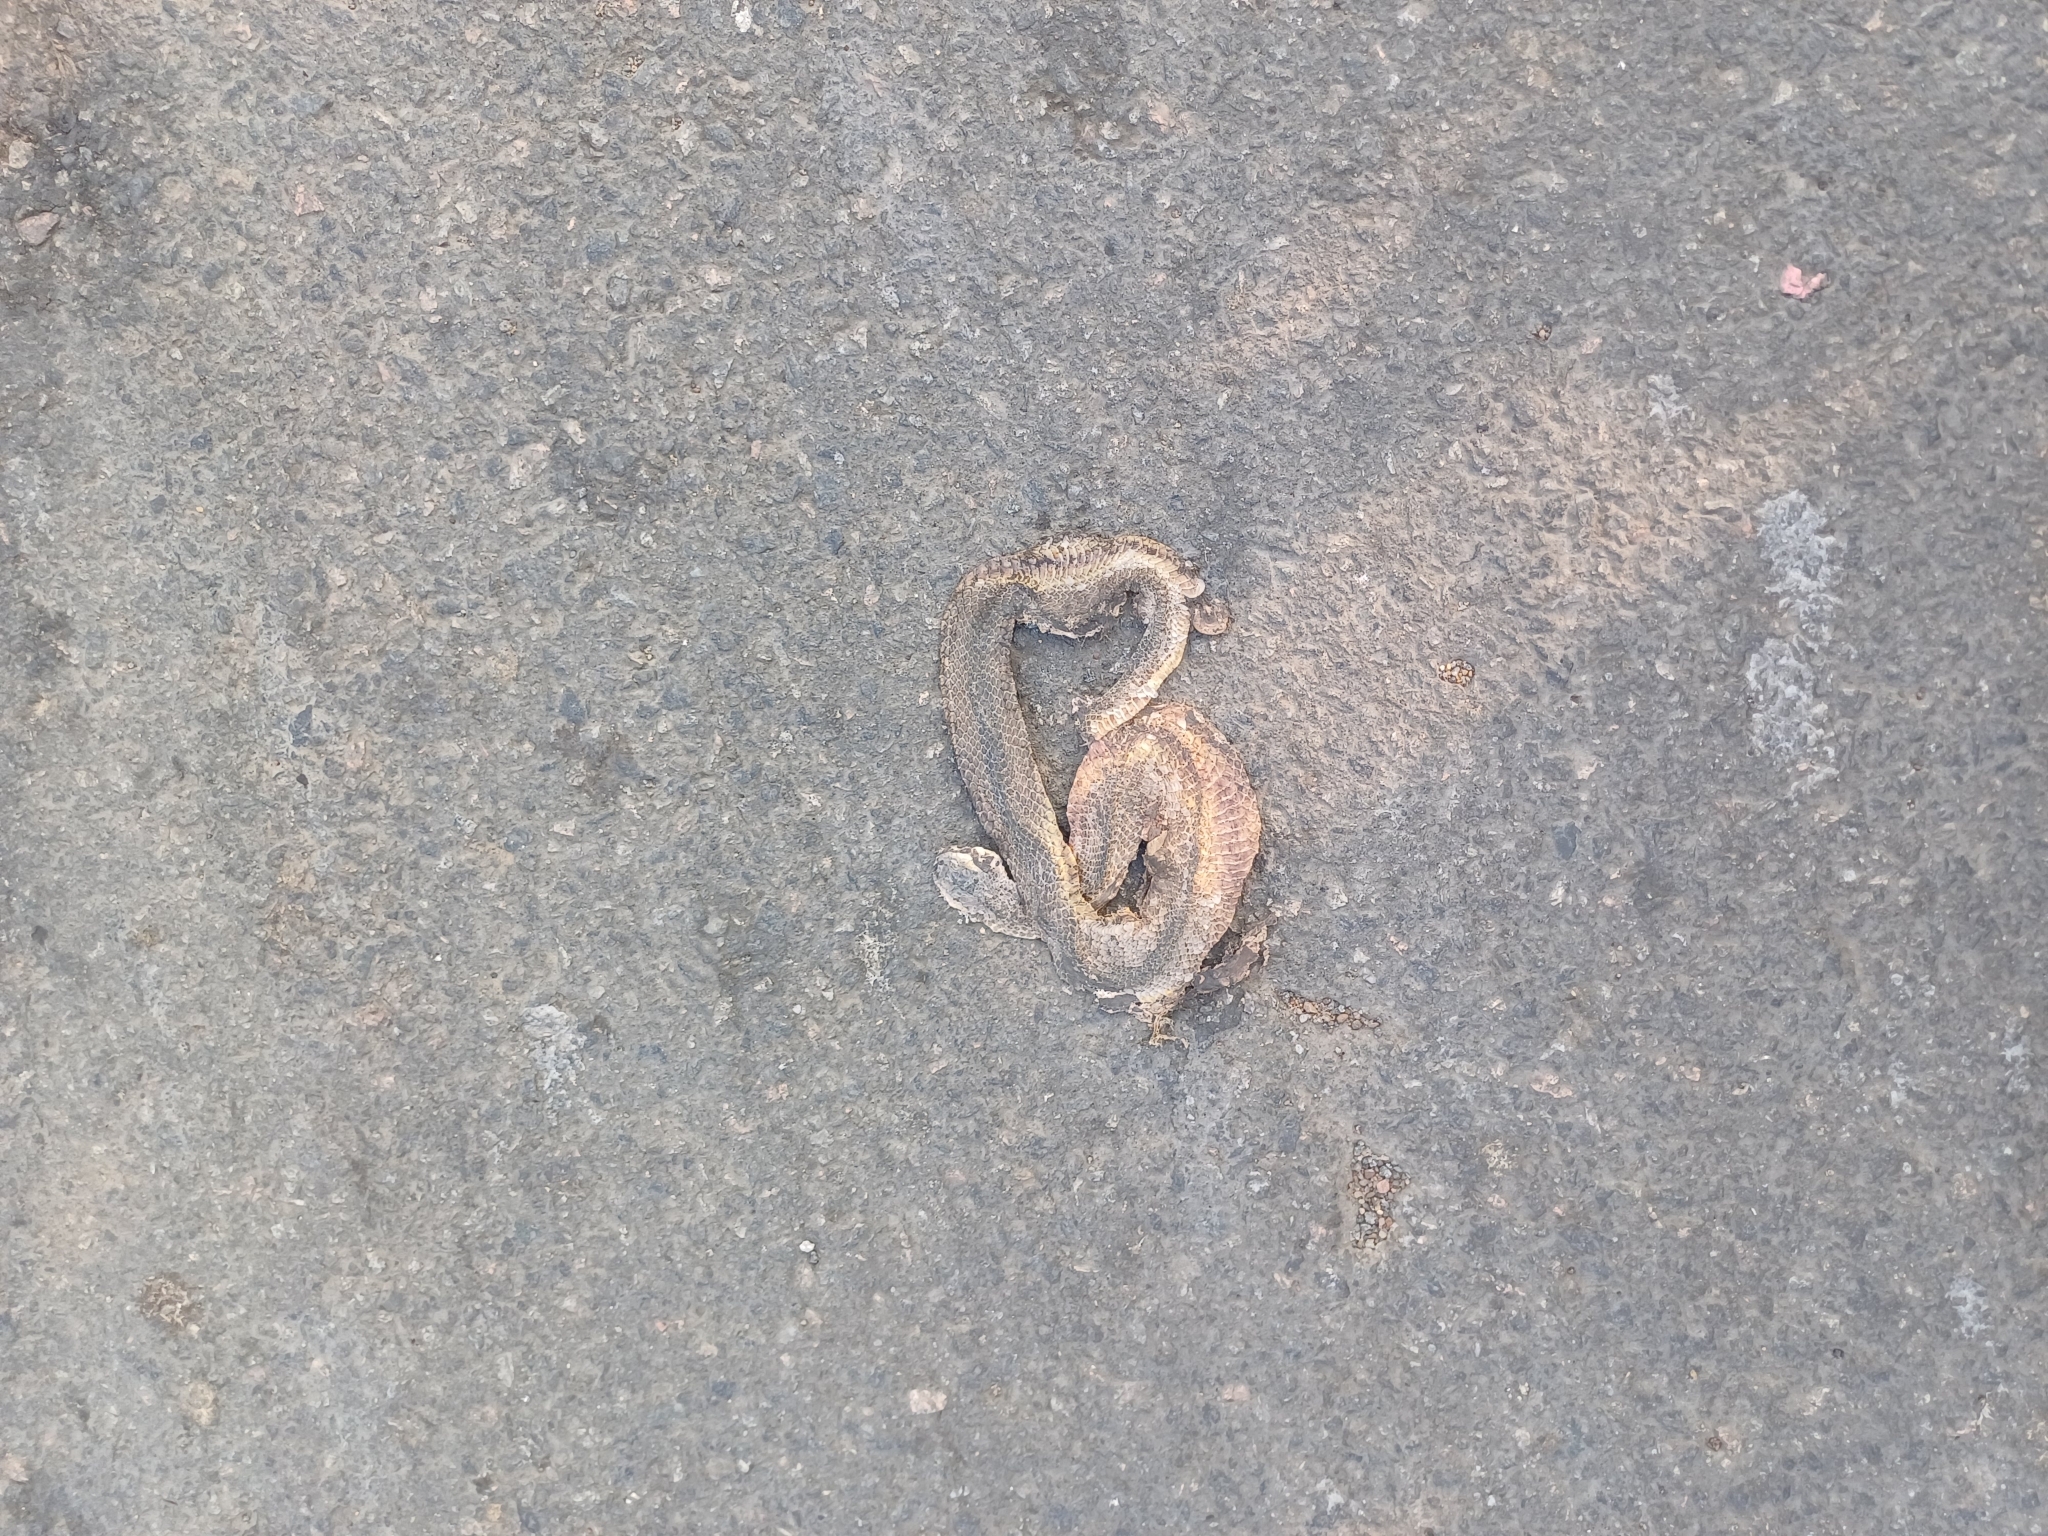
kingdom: Animalia
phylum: Chordata
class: Squamata
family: Colubridae
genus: Atretium
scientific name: Atretium schistosum
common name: Olive keelback wart snake
